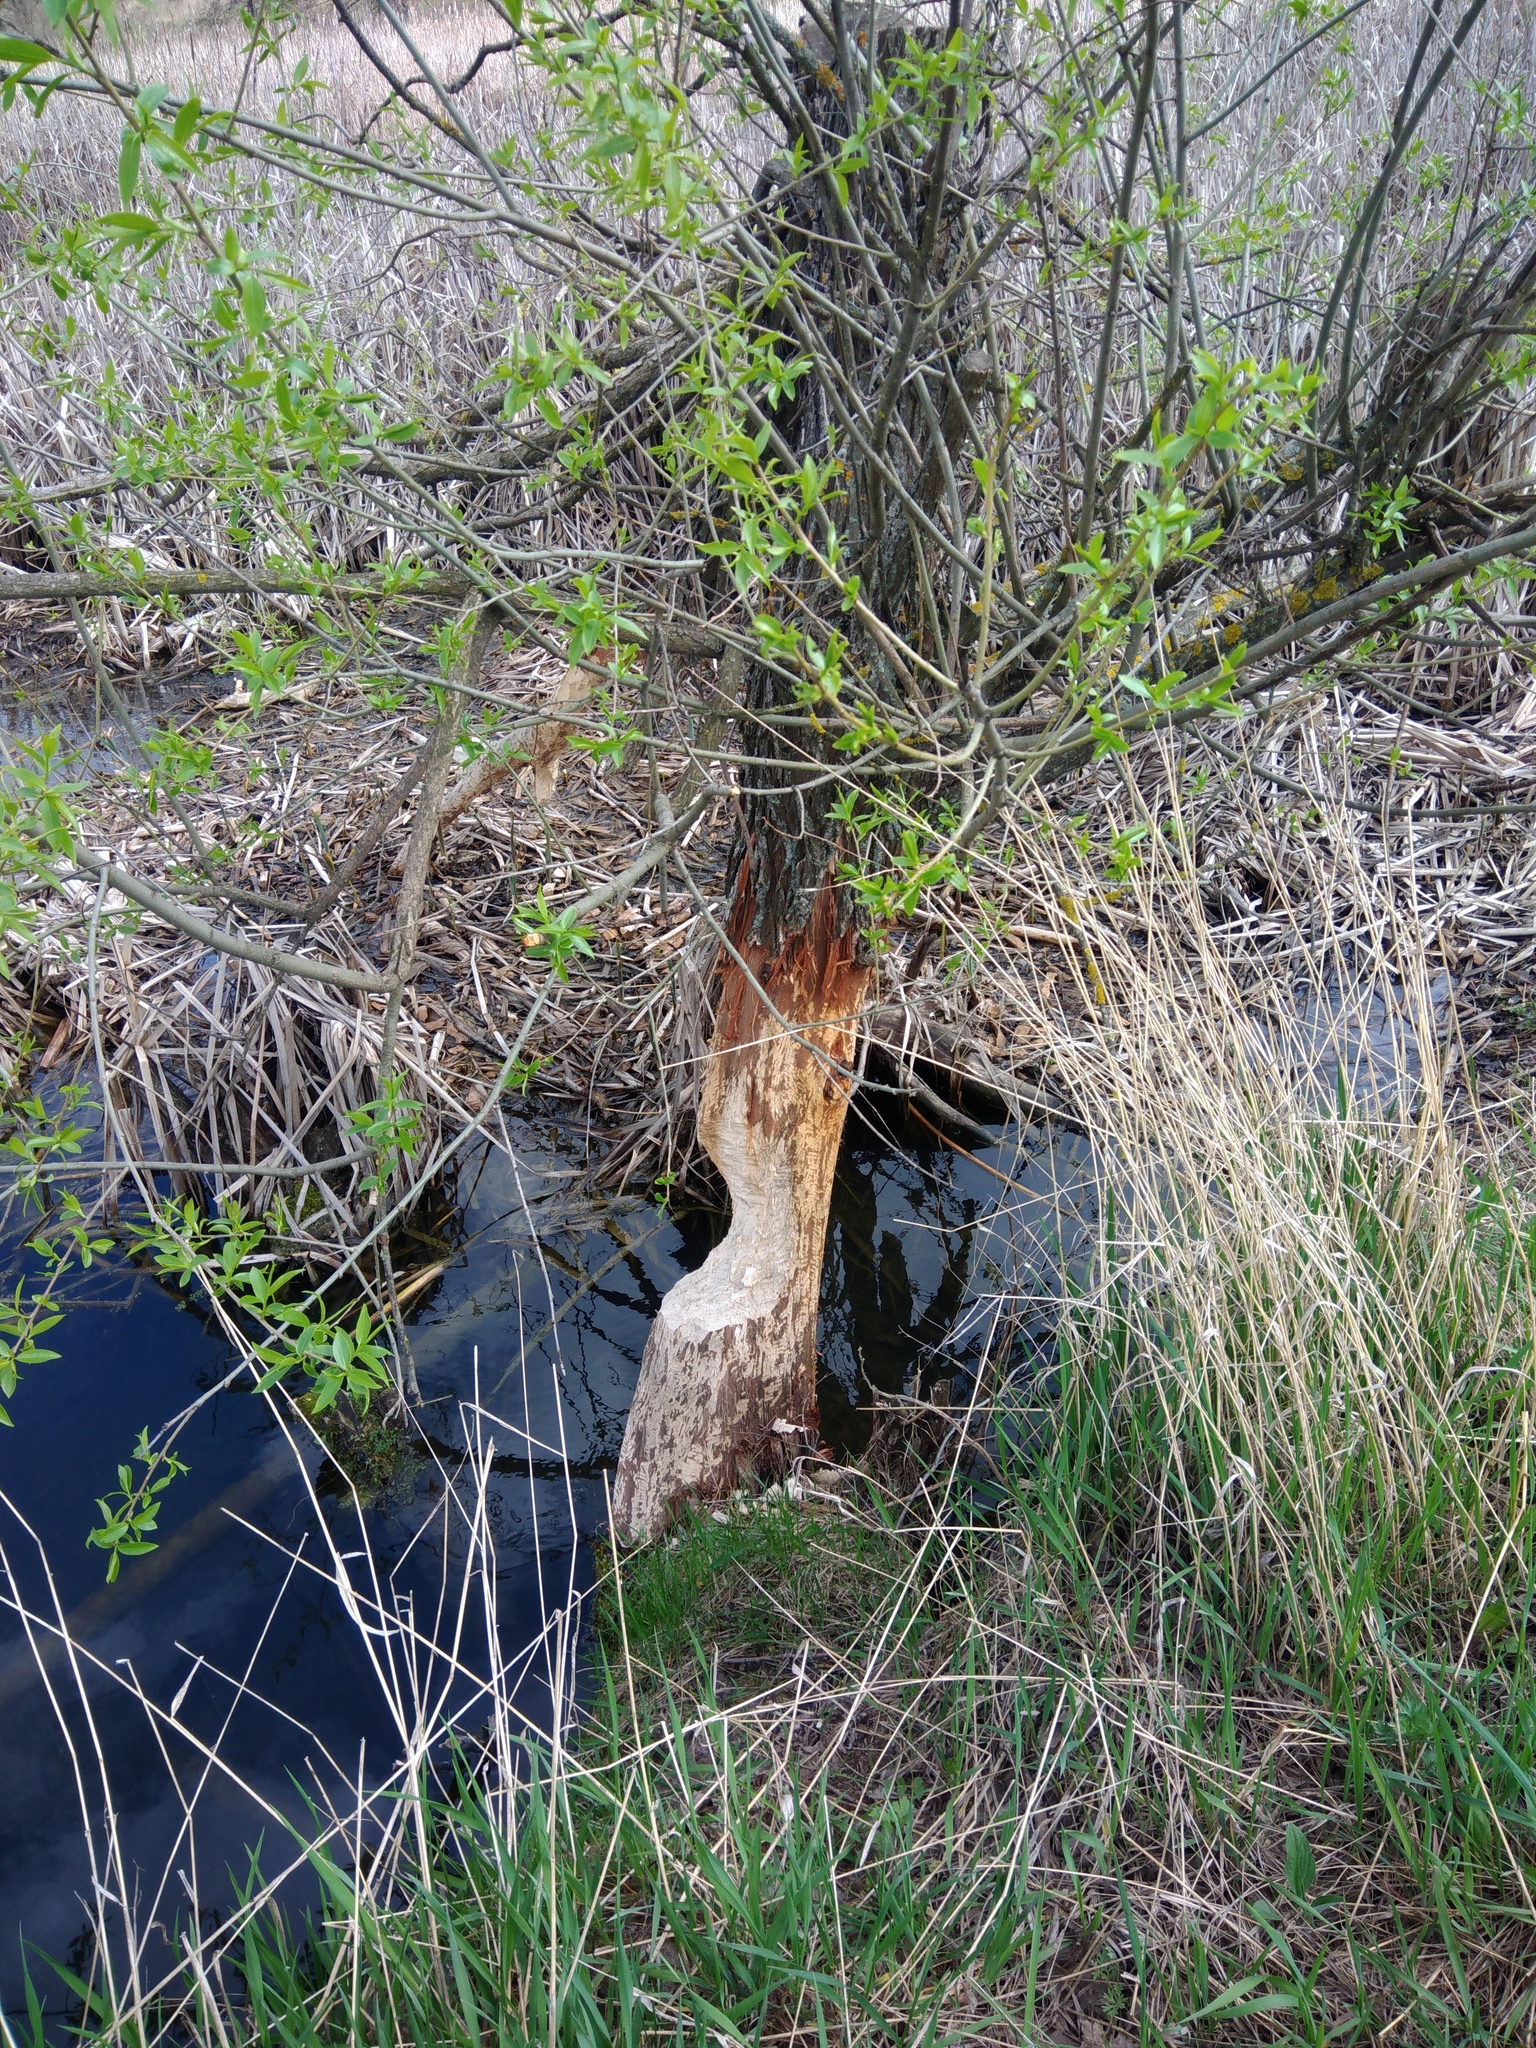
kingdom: Animalia
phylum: Chordata
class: Mammalia
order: Rodentia
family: Castoridae
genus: Castor
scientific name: Castor fiber
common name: Eurasian beaver
